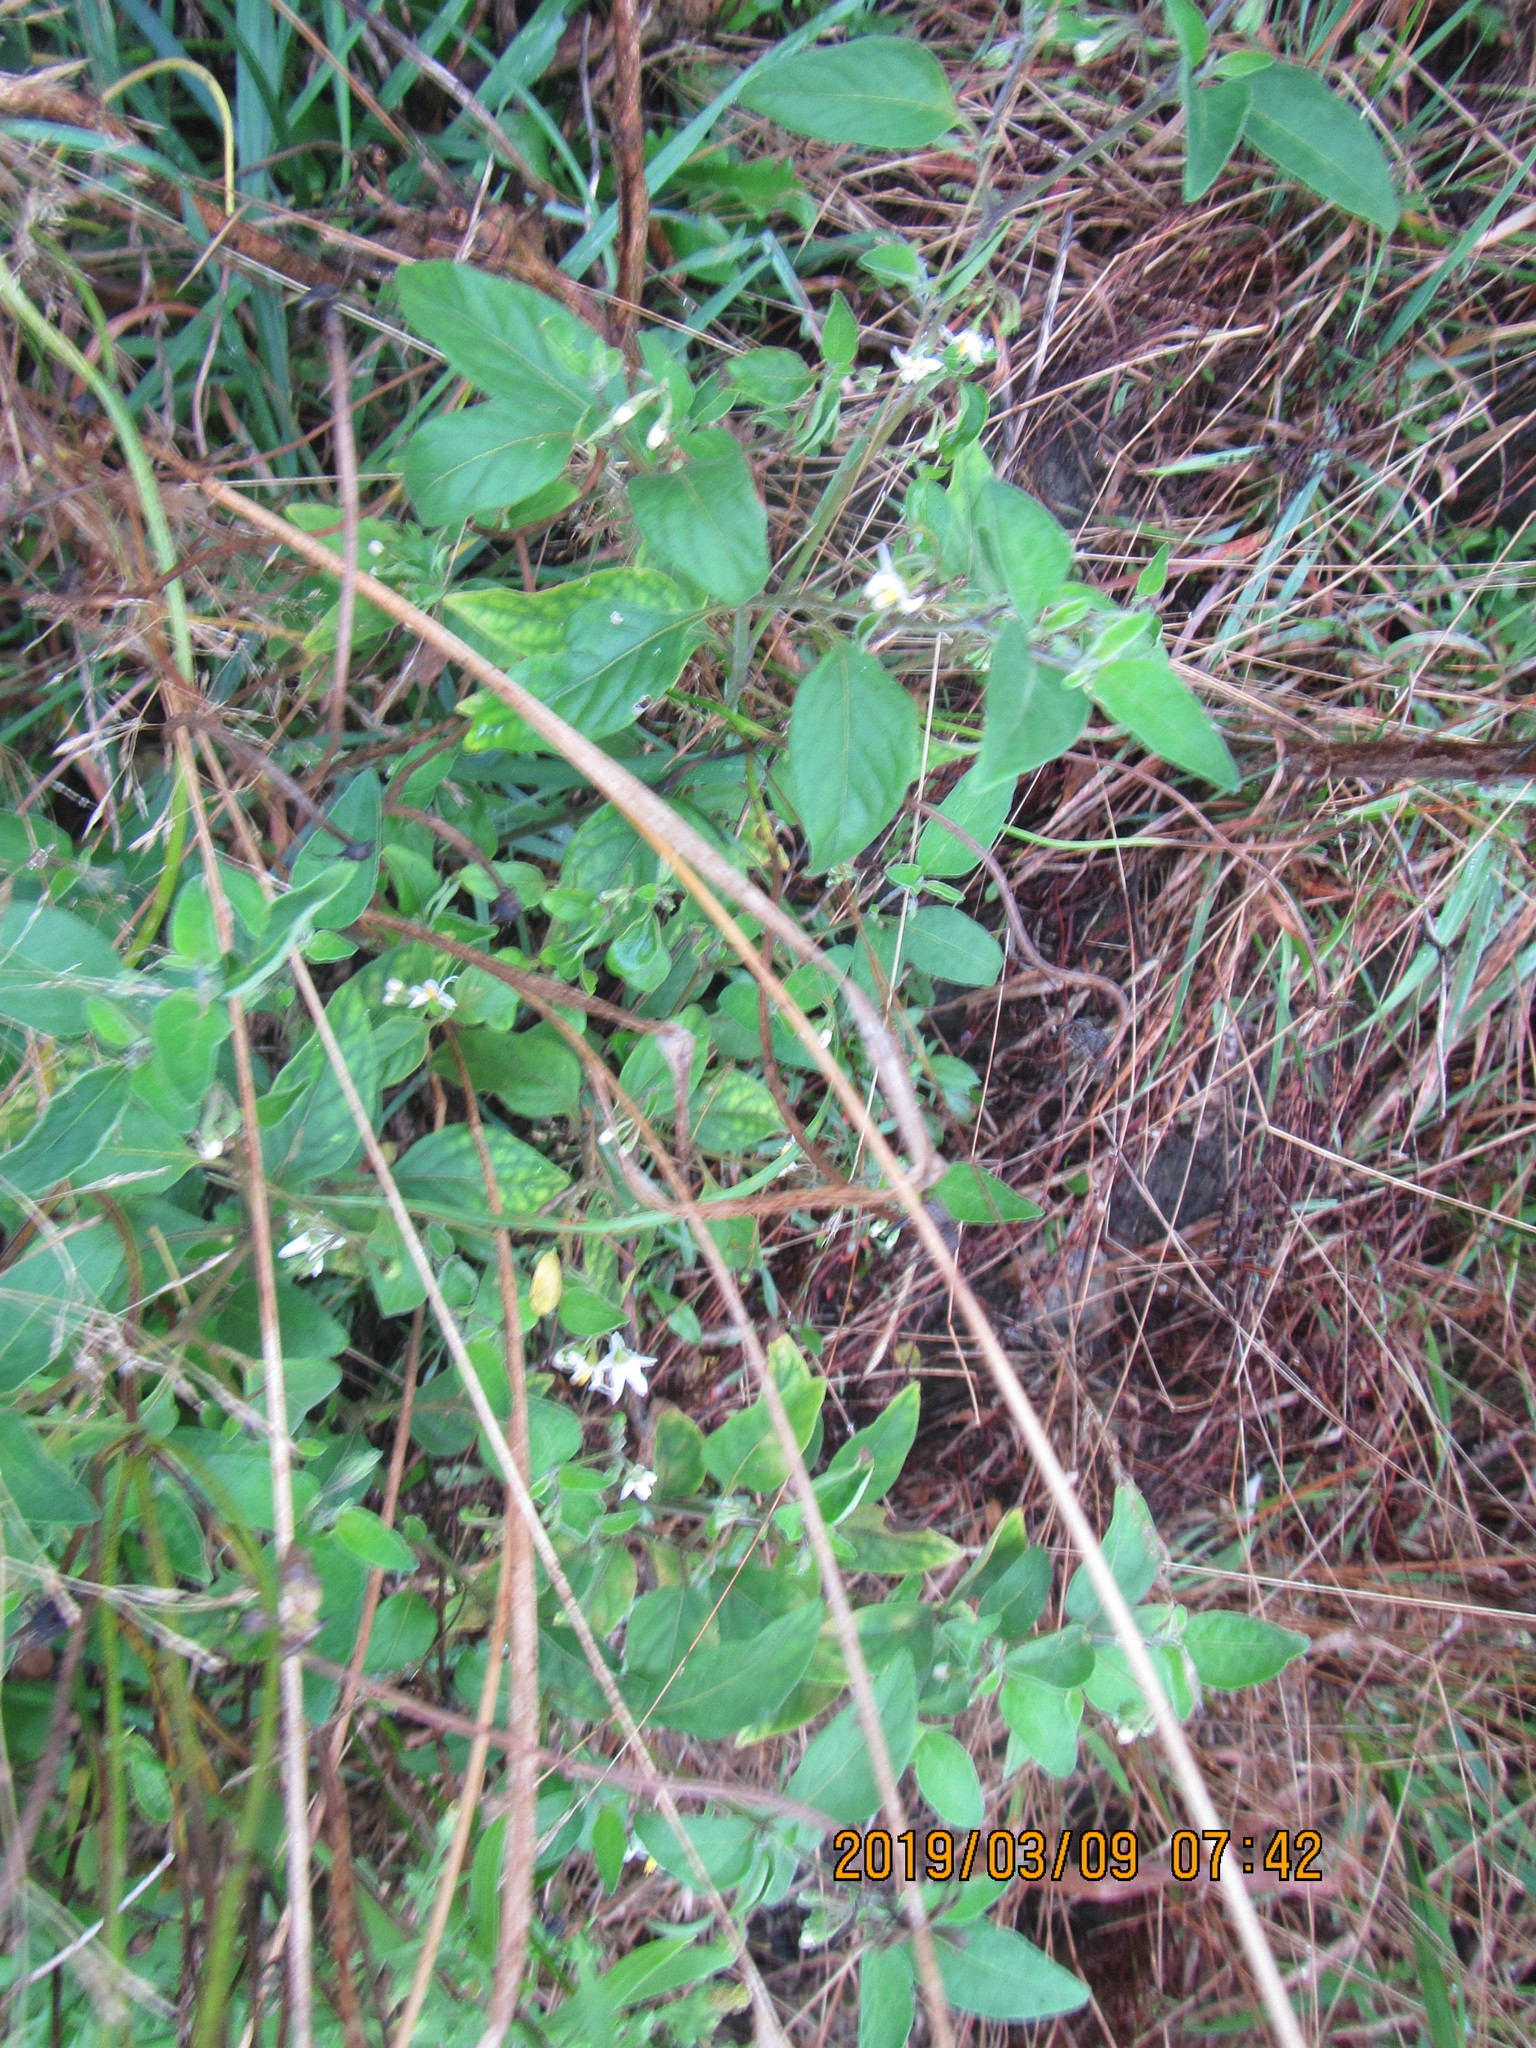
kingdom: Plantae
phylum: Tracheophyta
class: Magnoliopsida
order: Solanales
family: Solanaceae
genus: Solanum
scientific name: Solanum chenopodioides
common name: Tall nightshade
